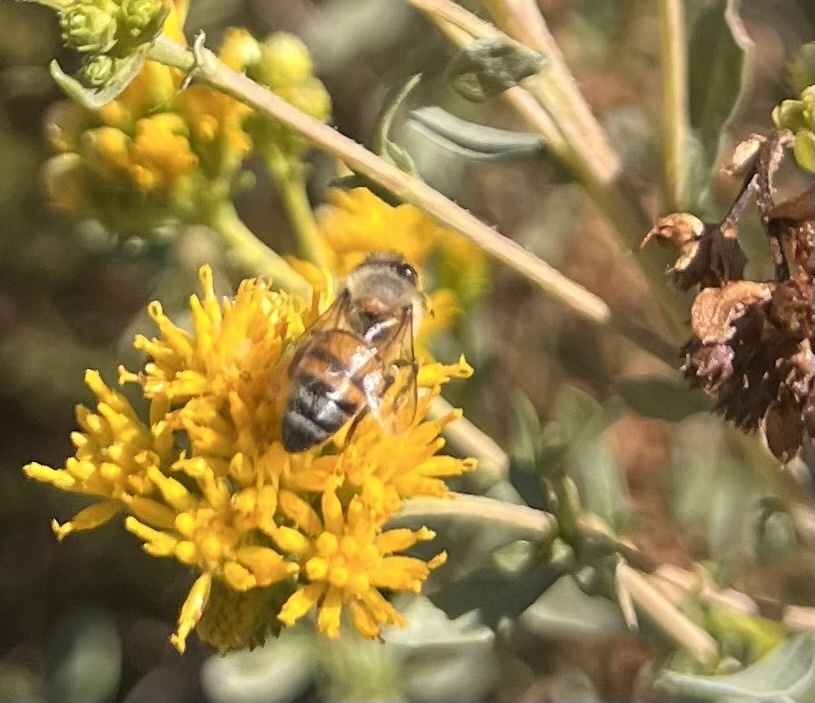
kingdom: Animalia
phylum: Arthropoda
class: Insecta
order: Hymenoptera
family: Apidae
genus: Apis
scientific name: Apis mellifera
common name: Honey bee
